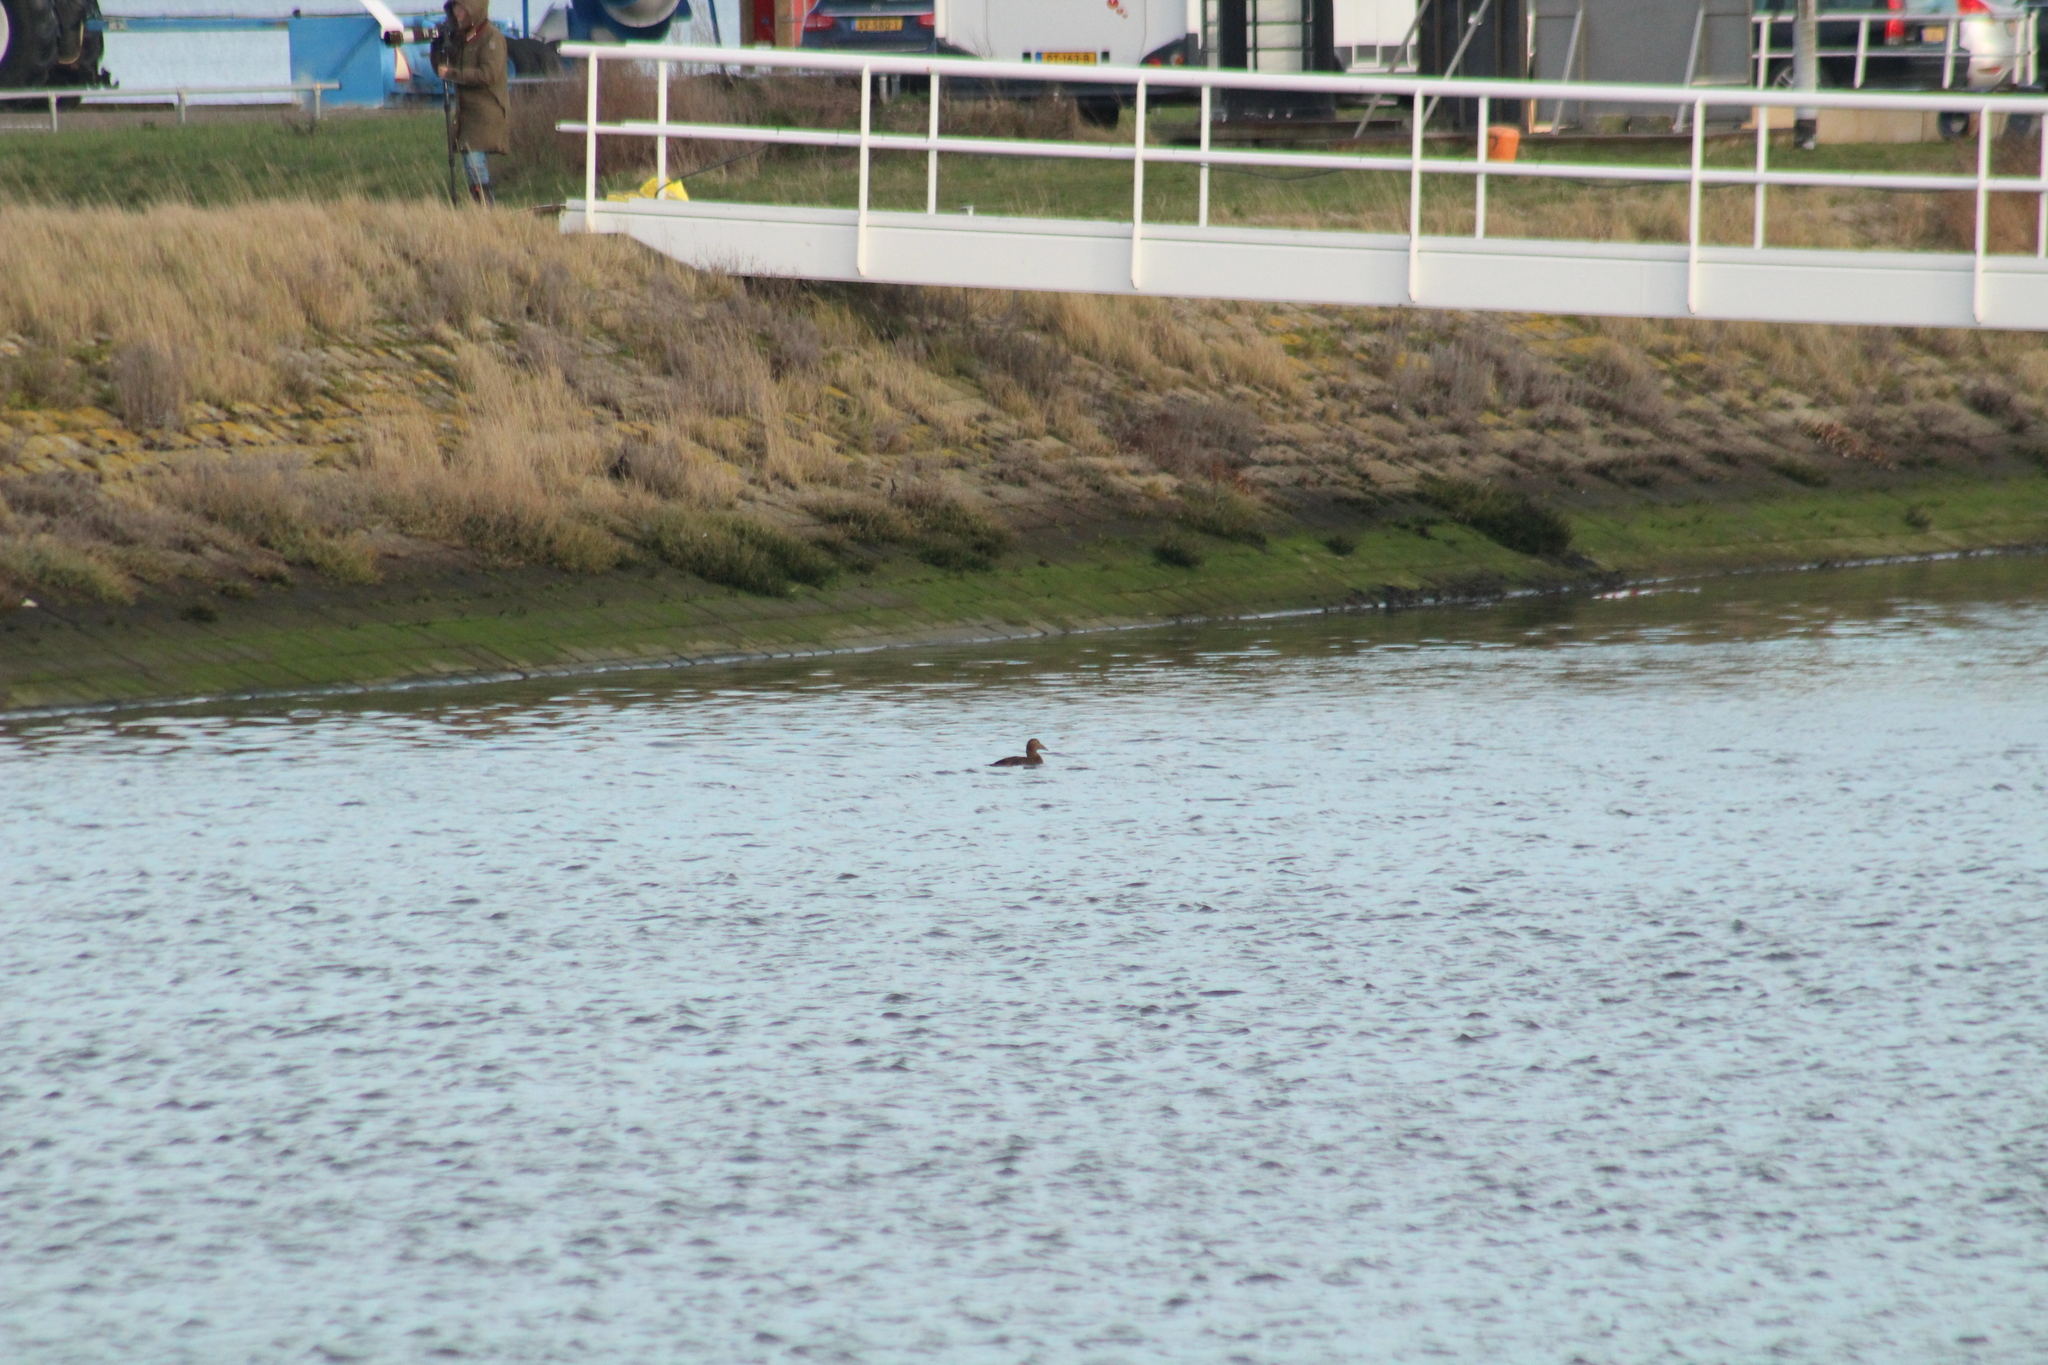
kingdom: Animalia
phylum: Chordata
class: Aves
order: Anseriformes
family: Anatidae
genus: Somateria
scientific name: Somateria mollissima
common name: Common eider
